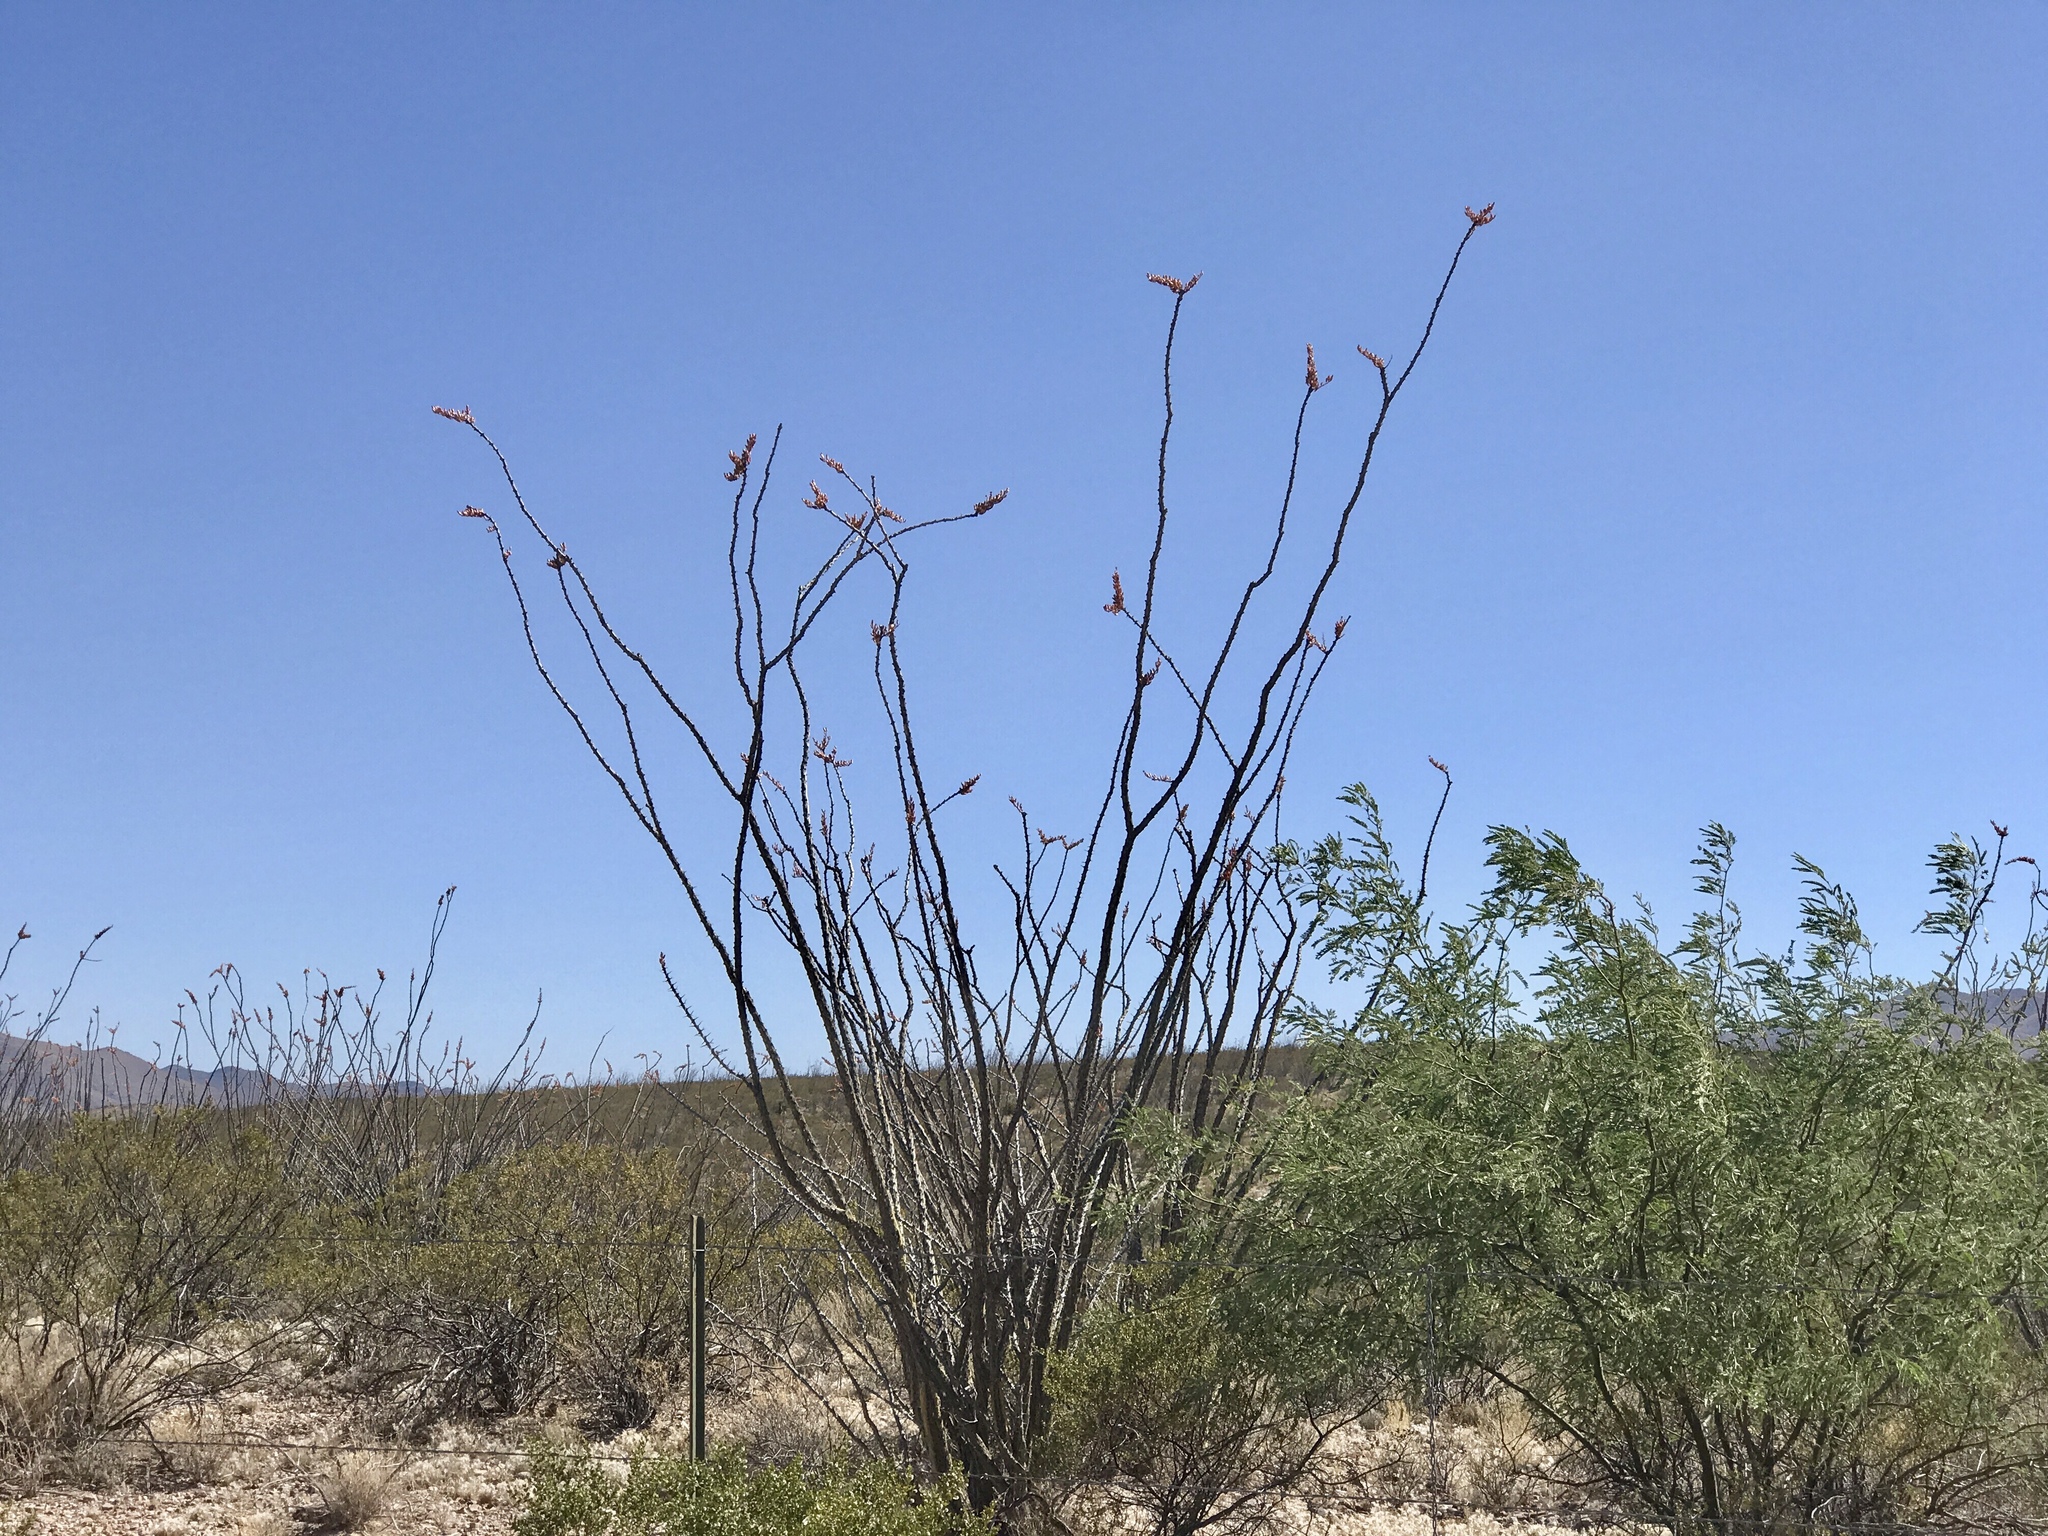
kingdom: Plantae
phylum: Tracheophyta
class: Magnoliopsida
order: Ericales
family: Fouquieriaceae
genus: Fouquieria
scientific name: Fouquieria splendens
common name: Vine-cactus
